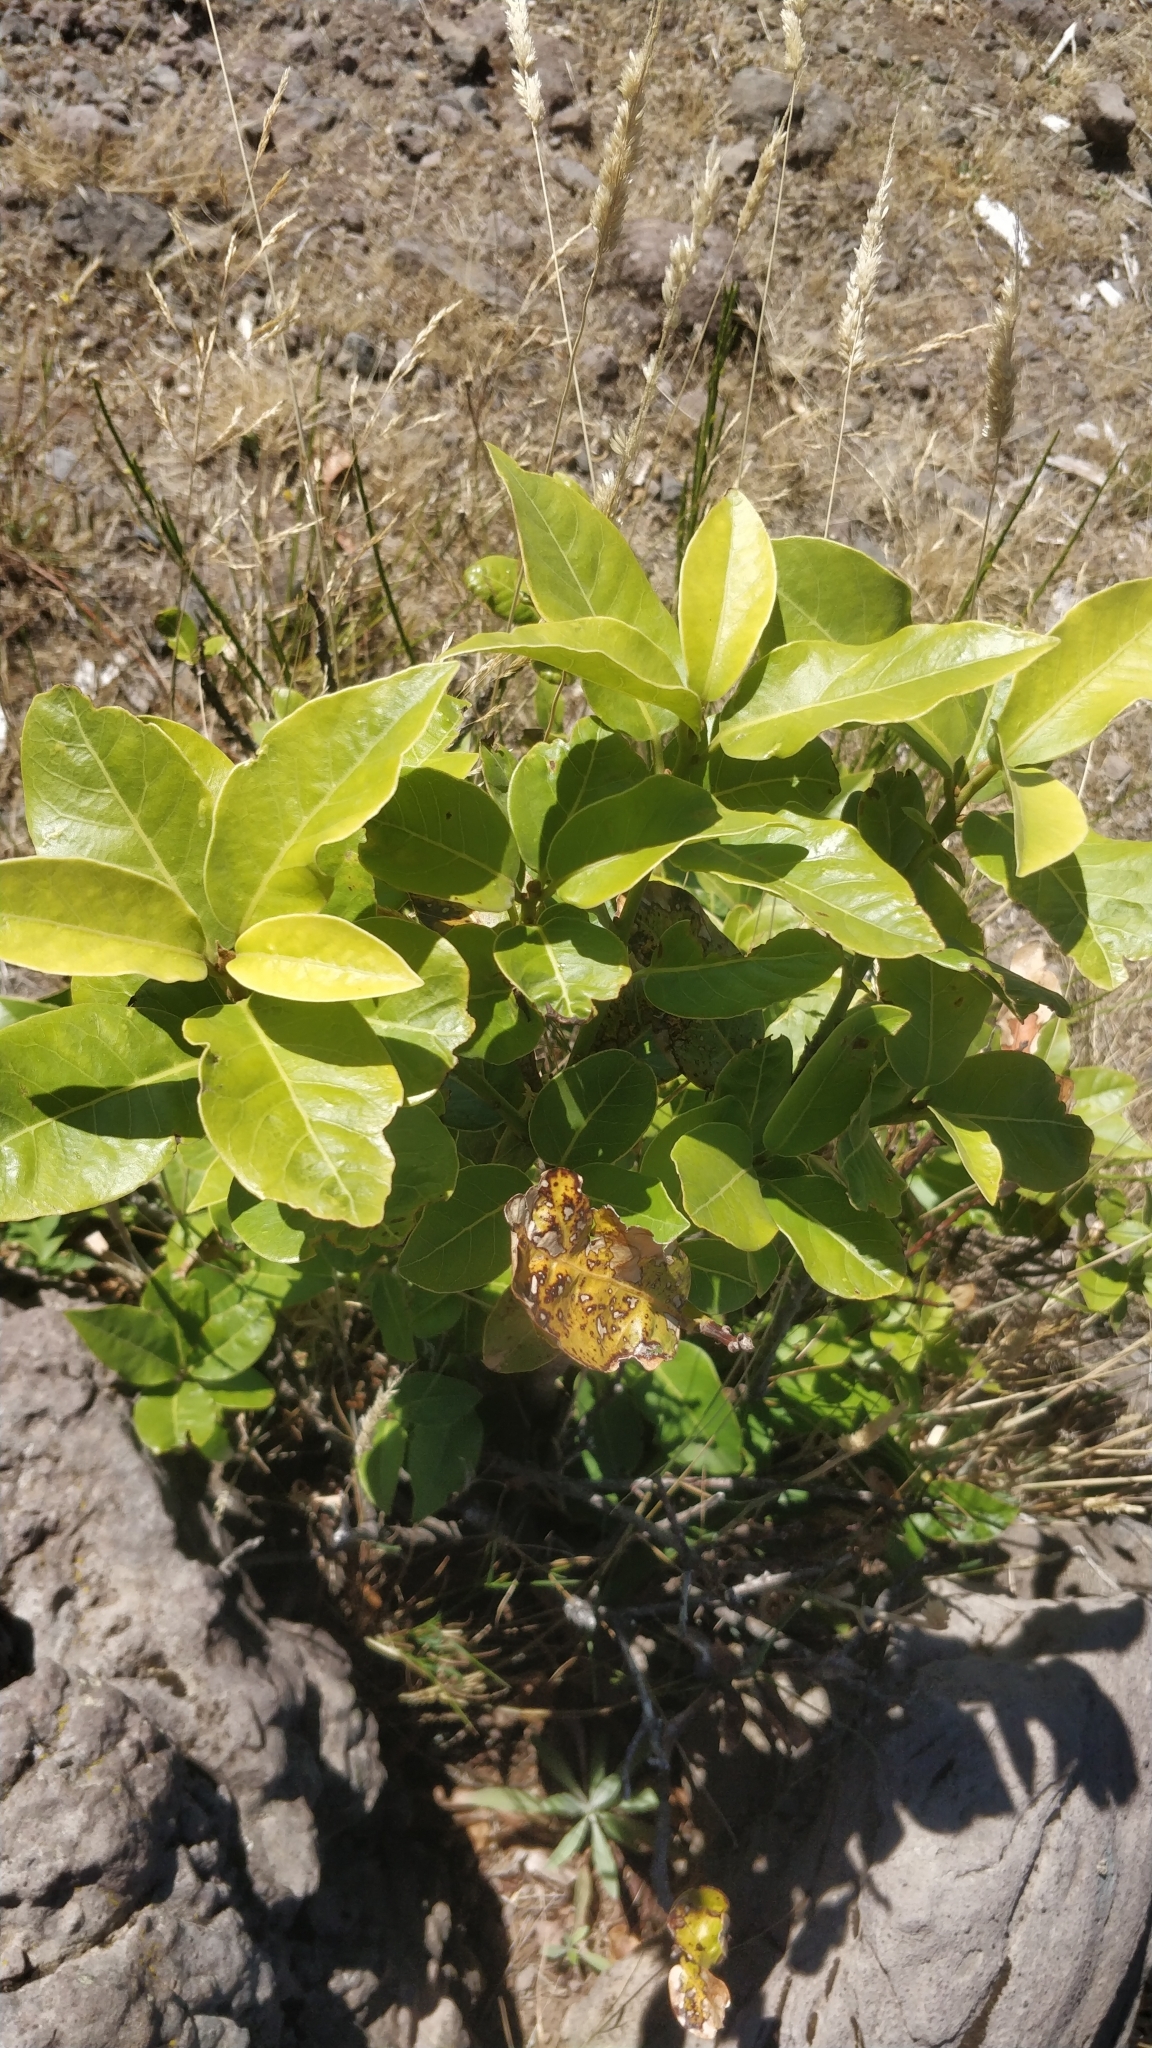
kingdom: Plantae
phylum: Tracheophyta
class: Magnoliopsida
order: Laurales
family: Lauraceae
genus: Laurus
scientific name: Laurus novocanariensis
